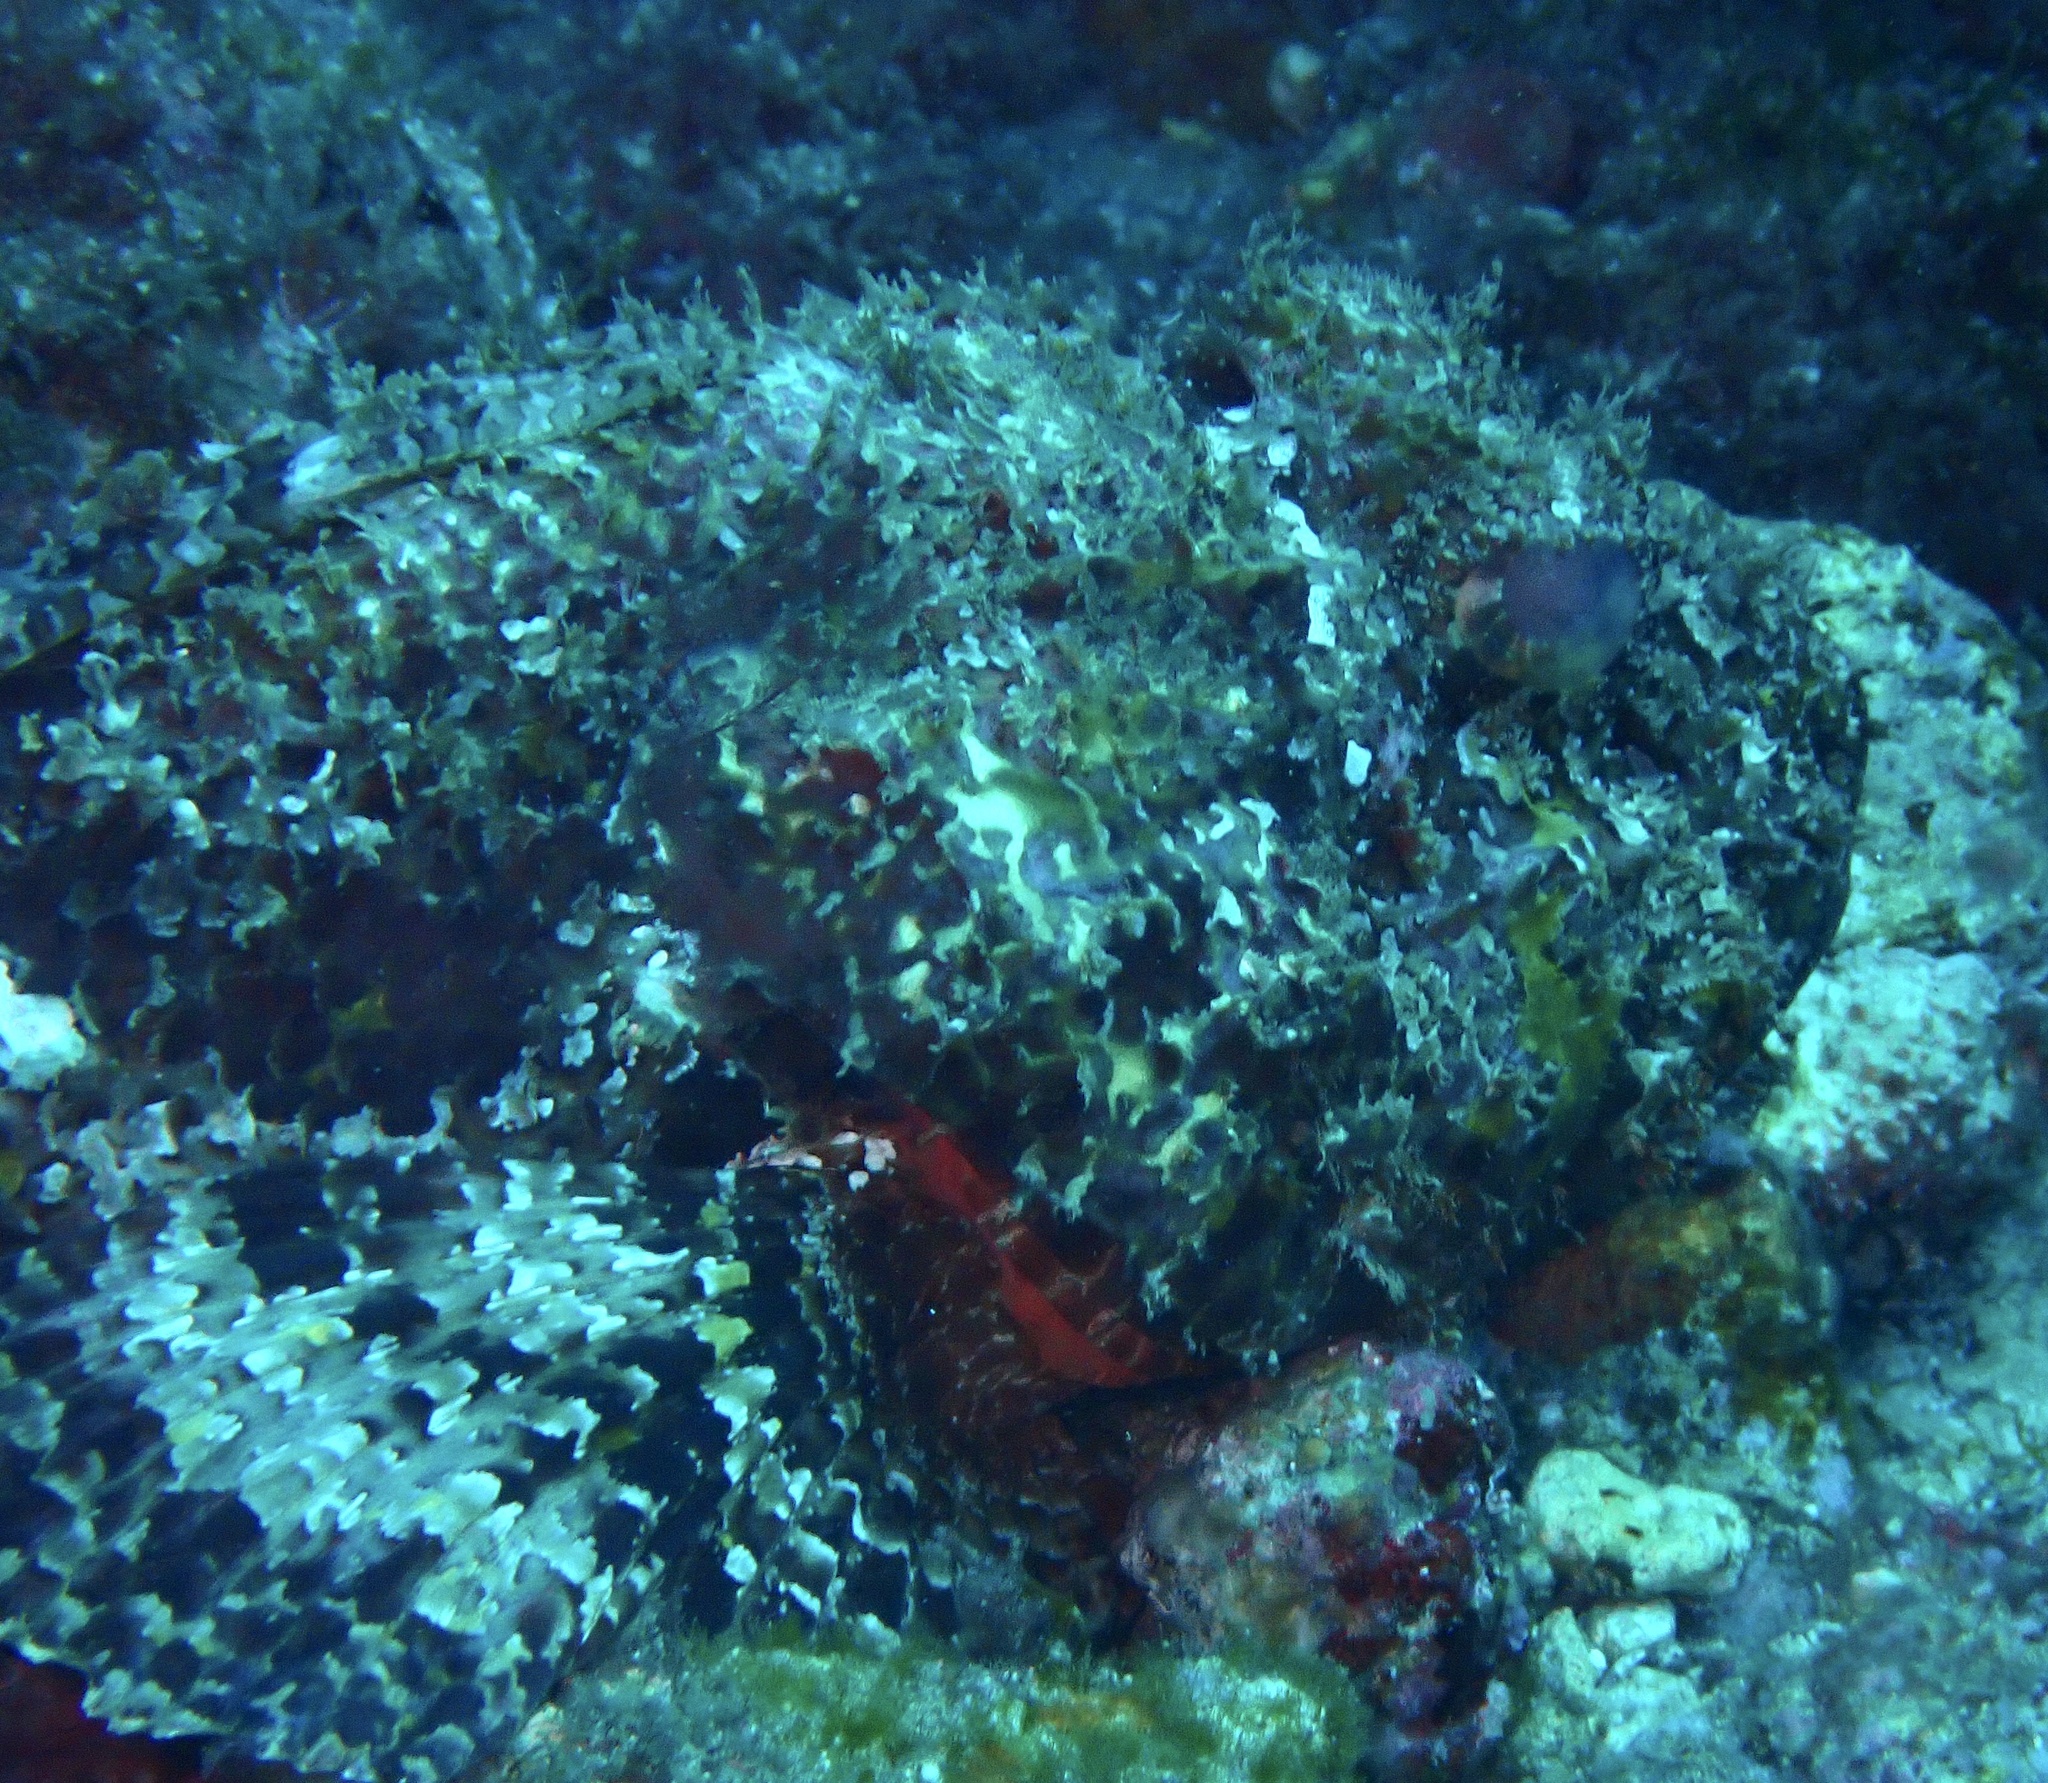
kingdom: Animalia
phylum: Chordata
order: Scorpaeniformes
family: Scorpaenidae
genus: Scorpaena
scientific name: Scorpaena laevis
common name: Senegalese rockfish
